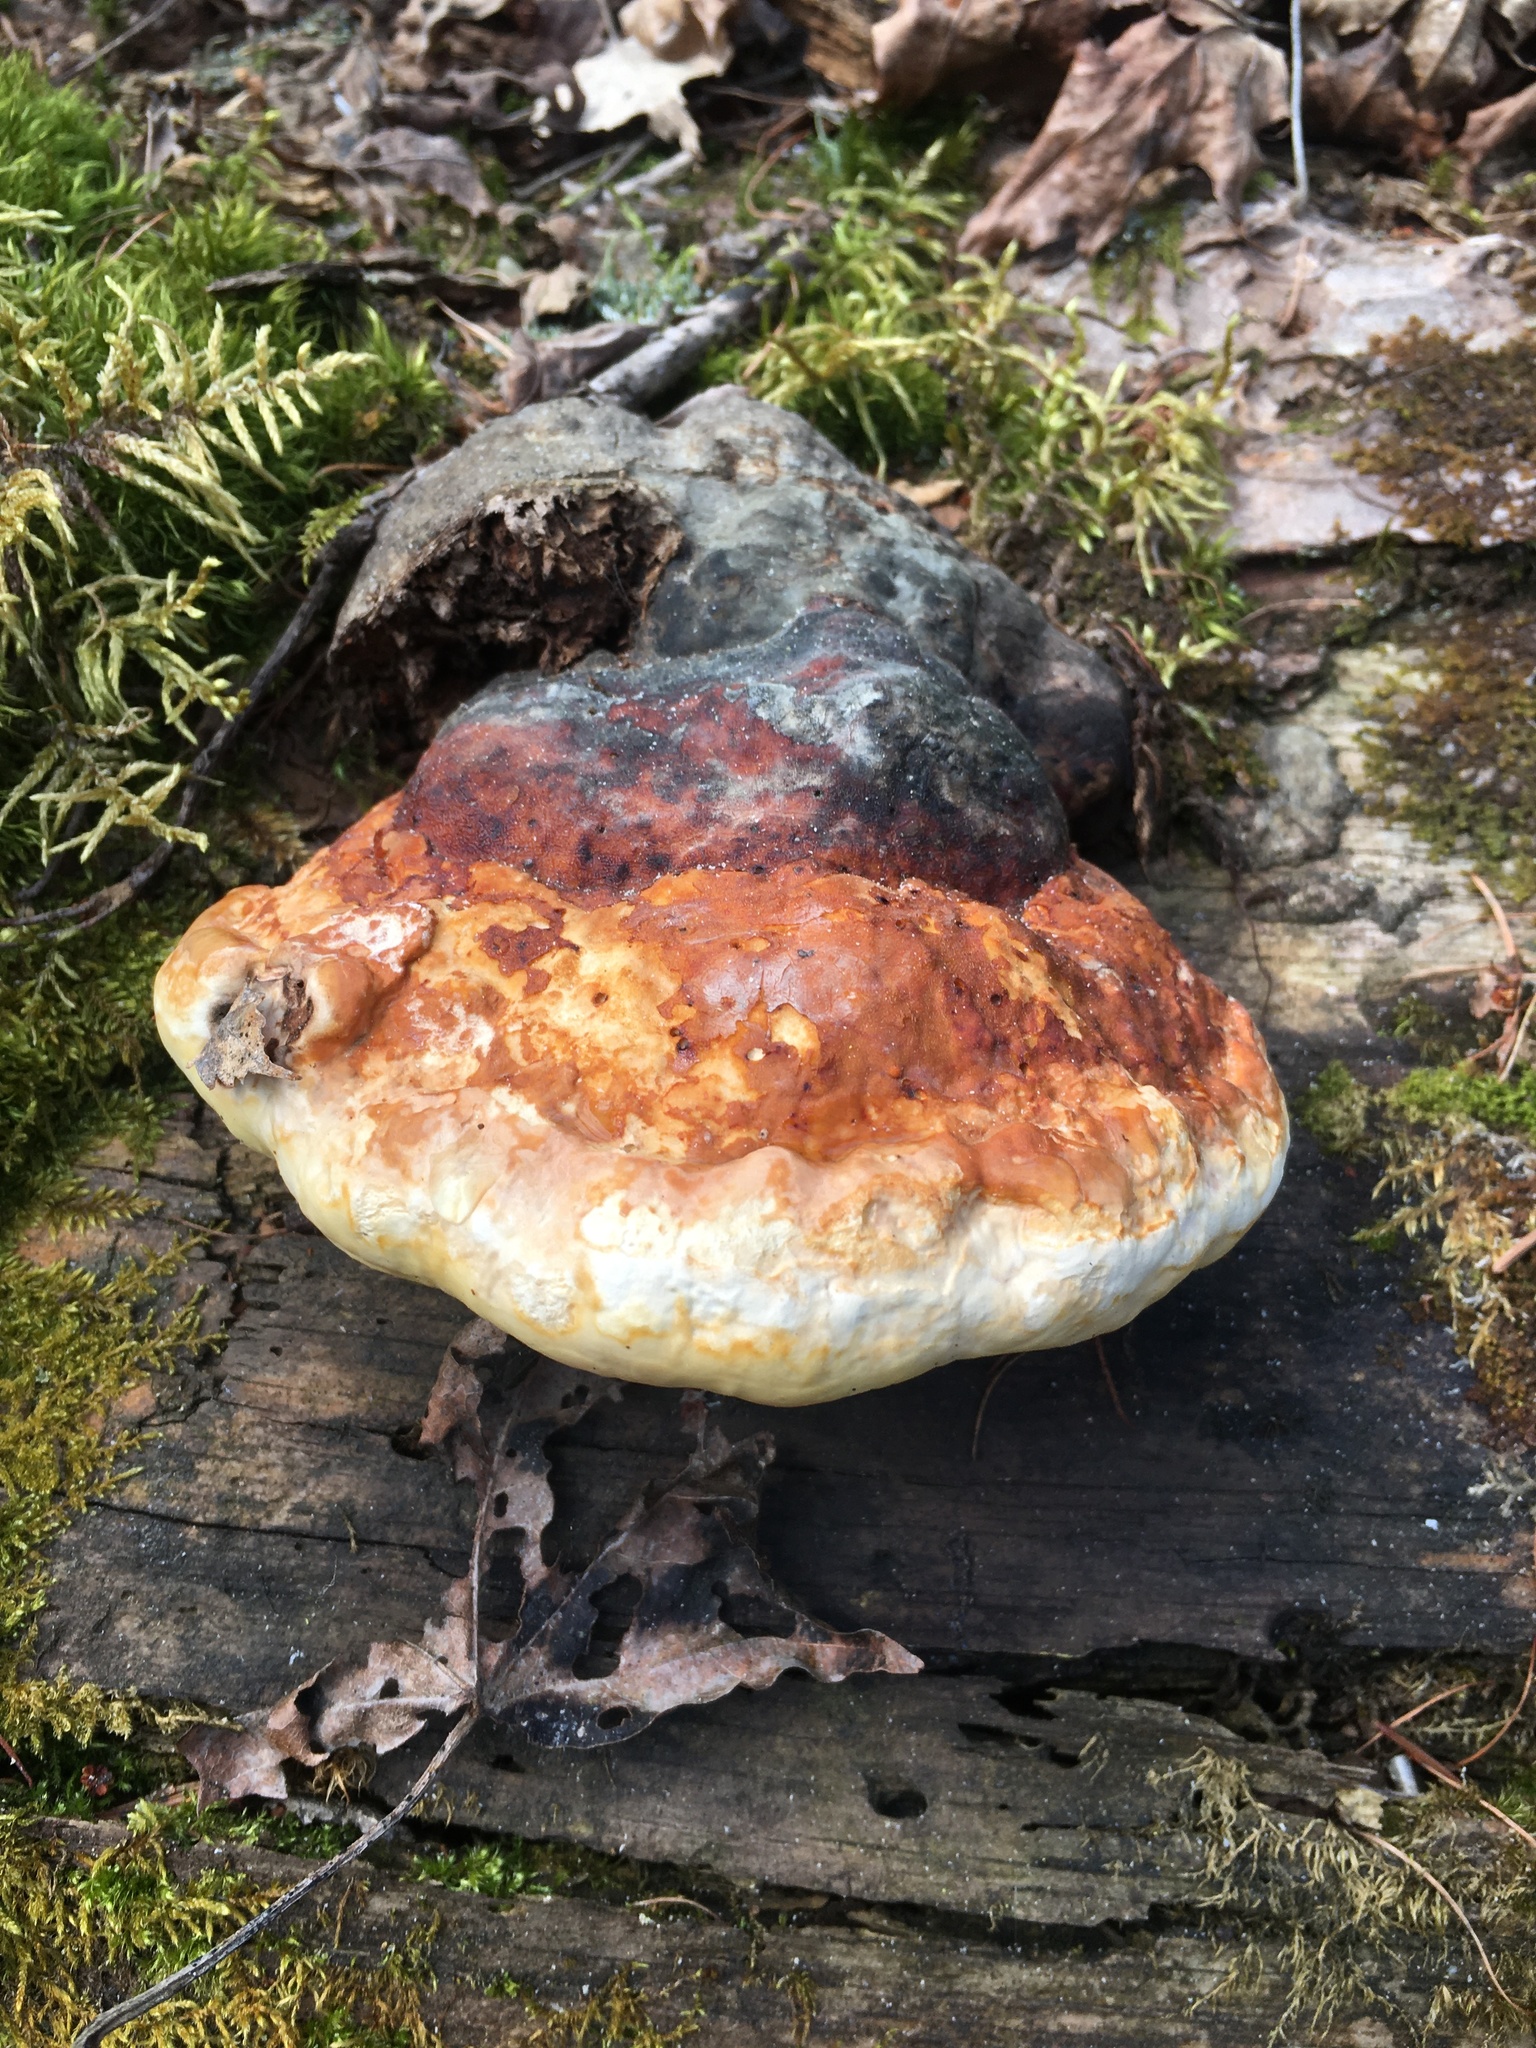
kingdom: Fungi
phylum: Basidiomycota
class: Agaricomycetes
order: Polyporales
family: Fomitopsidaceae
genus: Fomitopsis
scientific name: Fomitopsis pinicola
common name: Red-belted bracket
